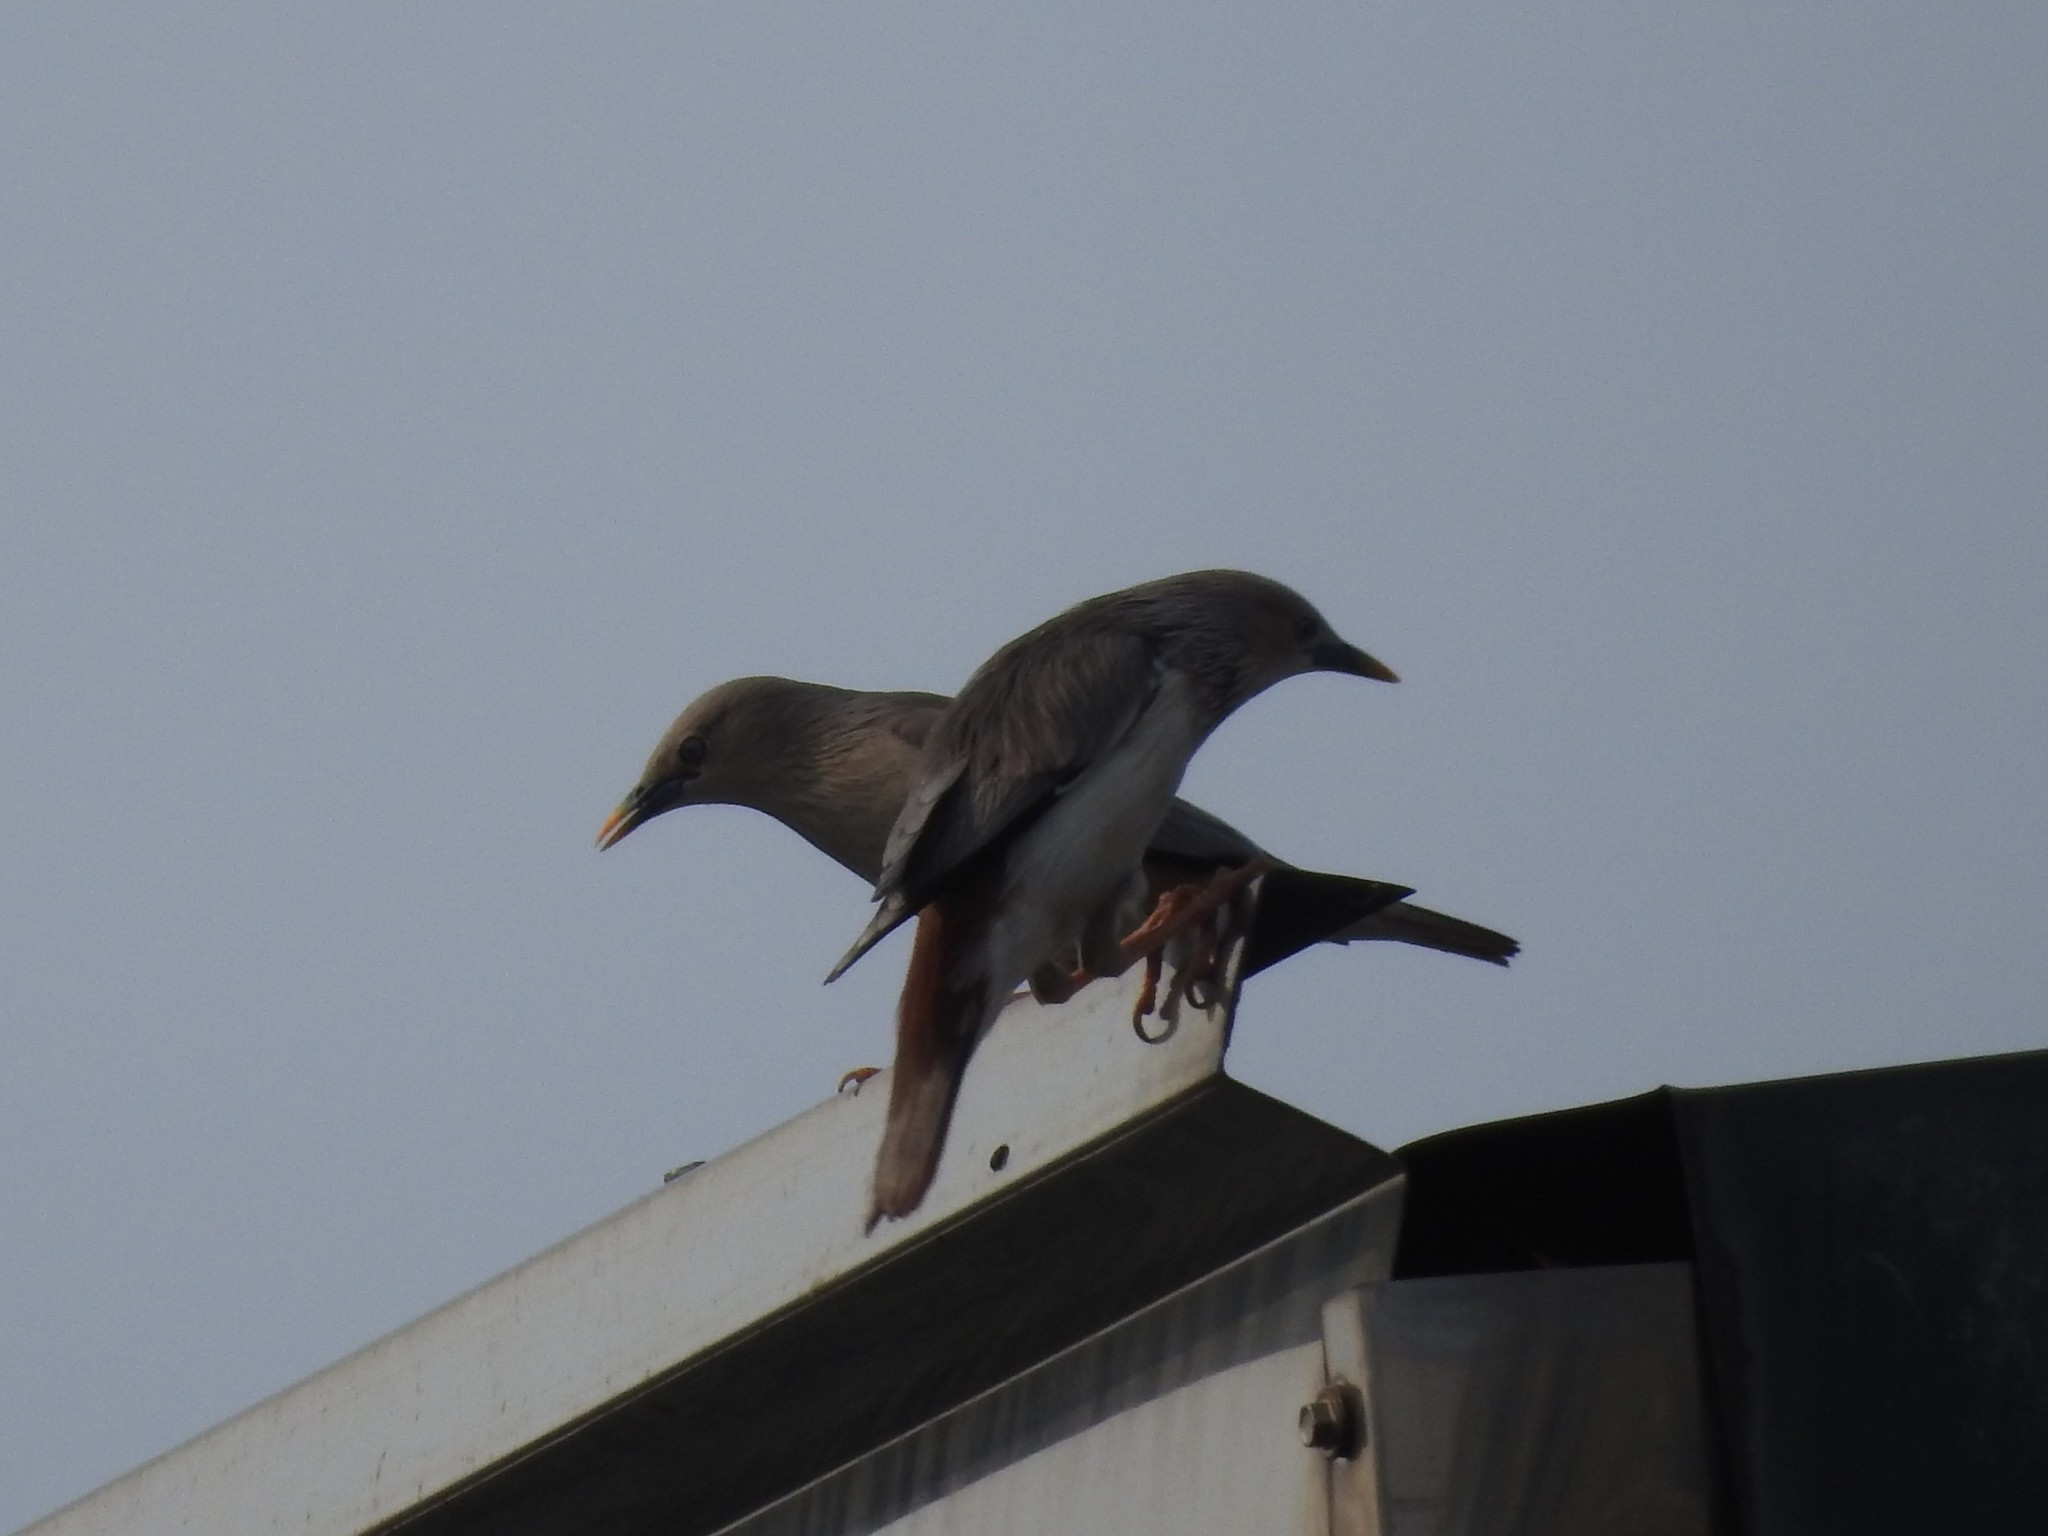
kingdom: Animalia
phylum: Chordata
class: Aves
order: Passeriformes
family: Sturnidae
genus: Sturnia
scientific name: Sturnia malabarica
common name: Chestnut-tailed starling
